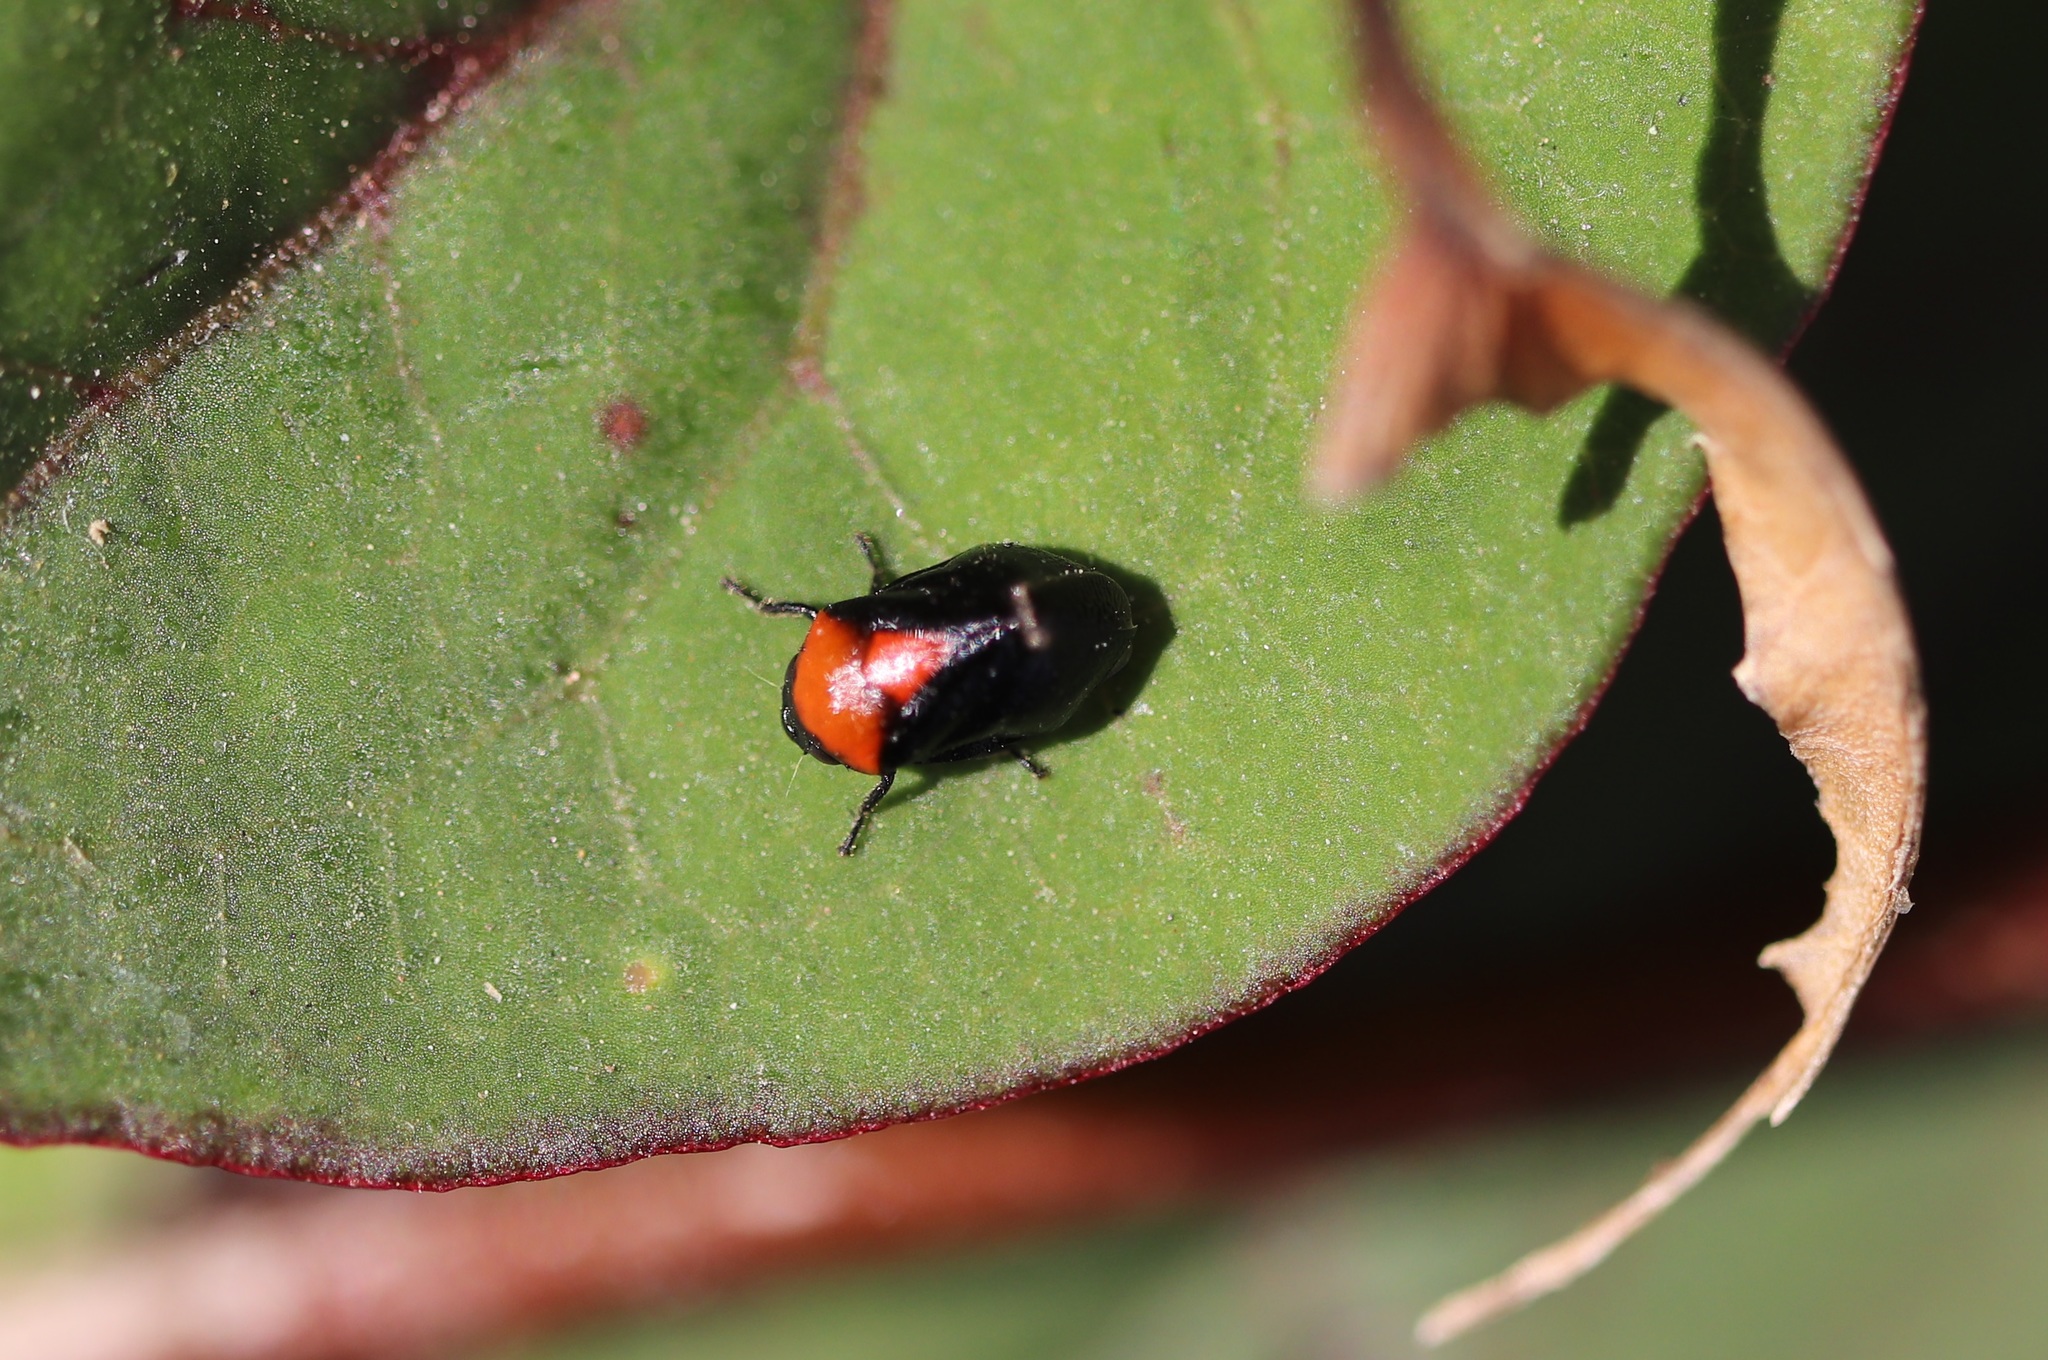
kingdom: Animalia
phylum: Arthropoda
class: Insecta
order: Hemiptera
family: Machaerotidae
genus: Hindoloides
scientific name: Hindoloides bipunctata
